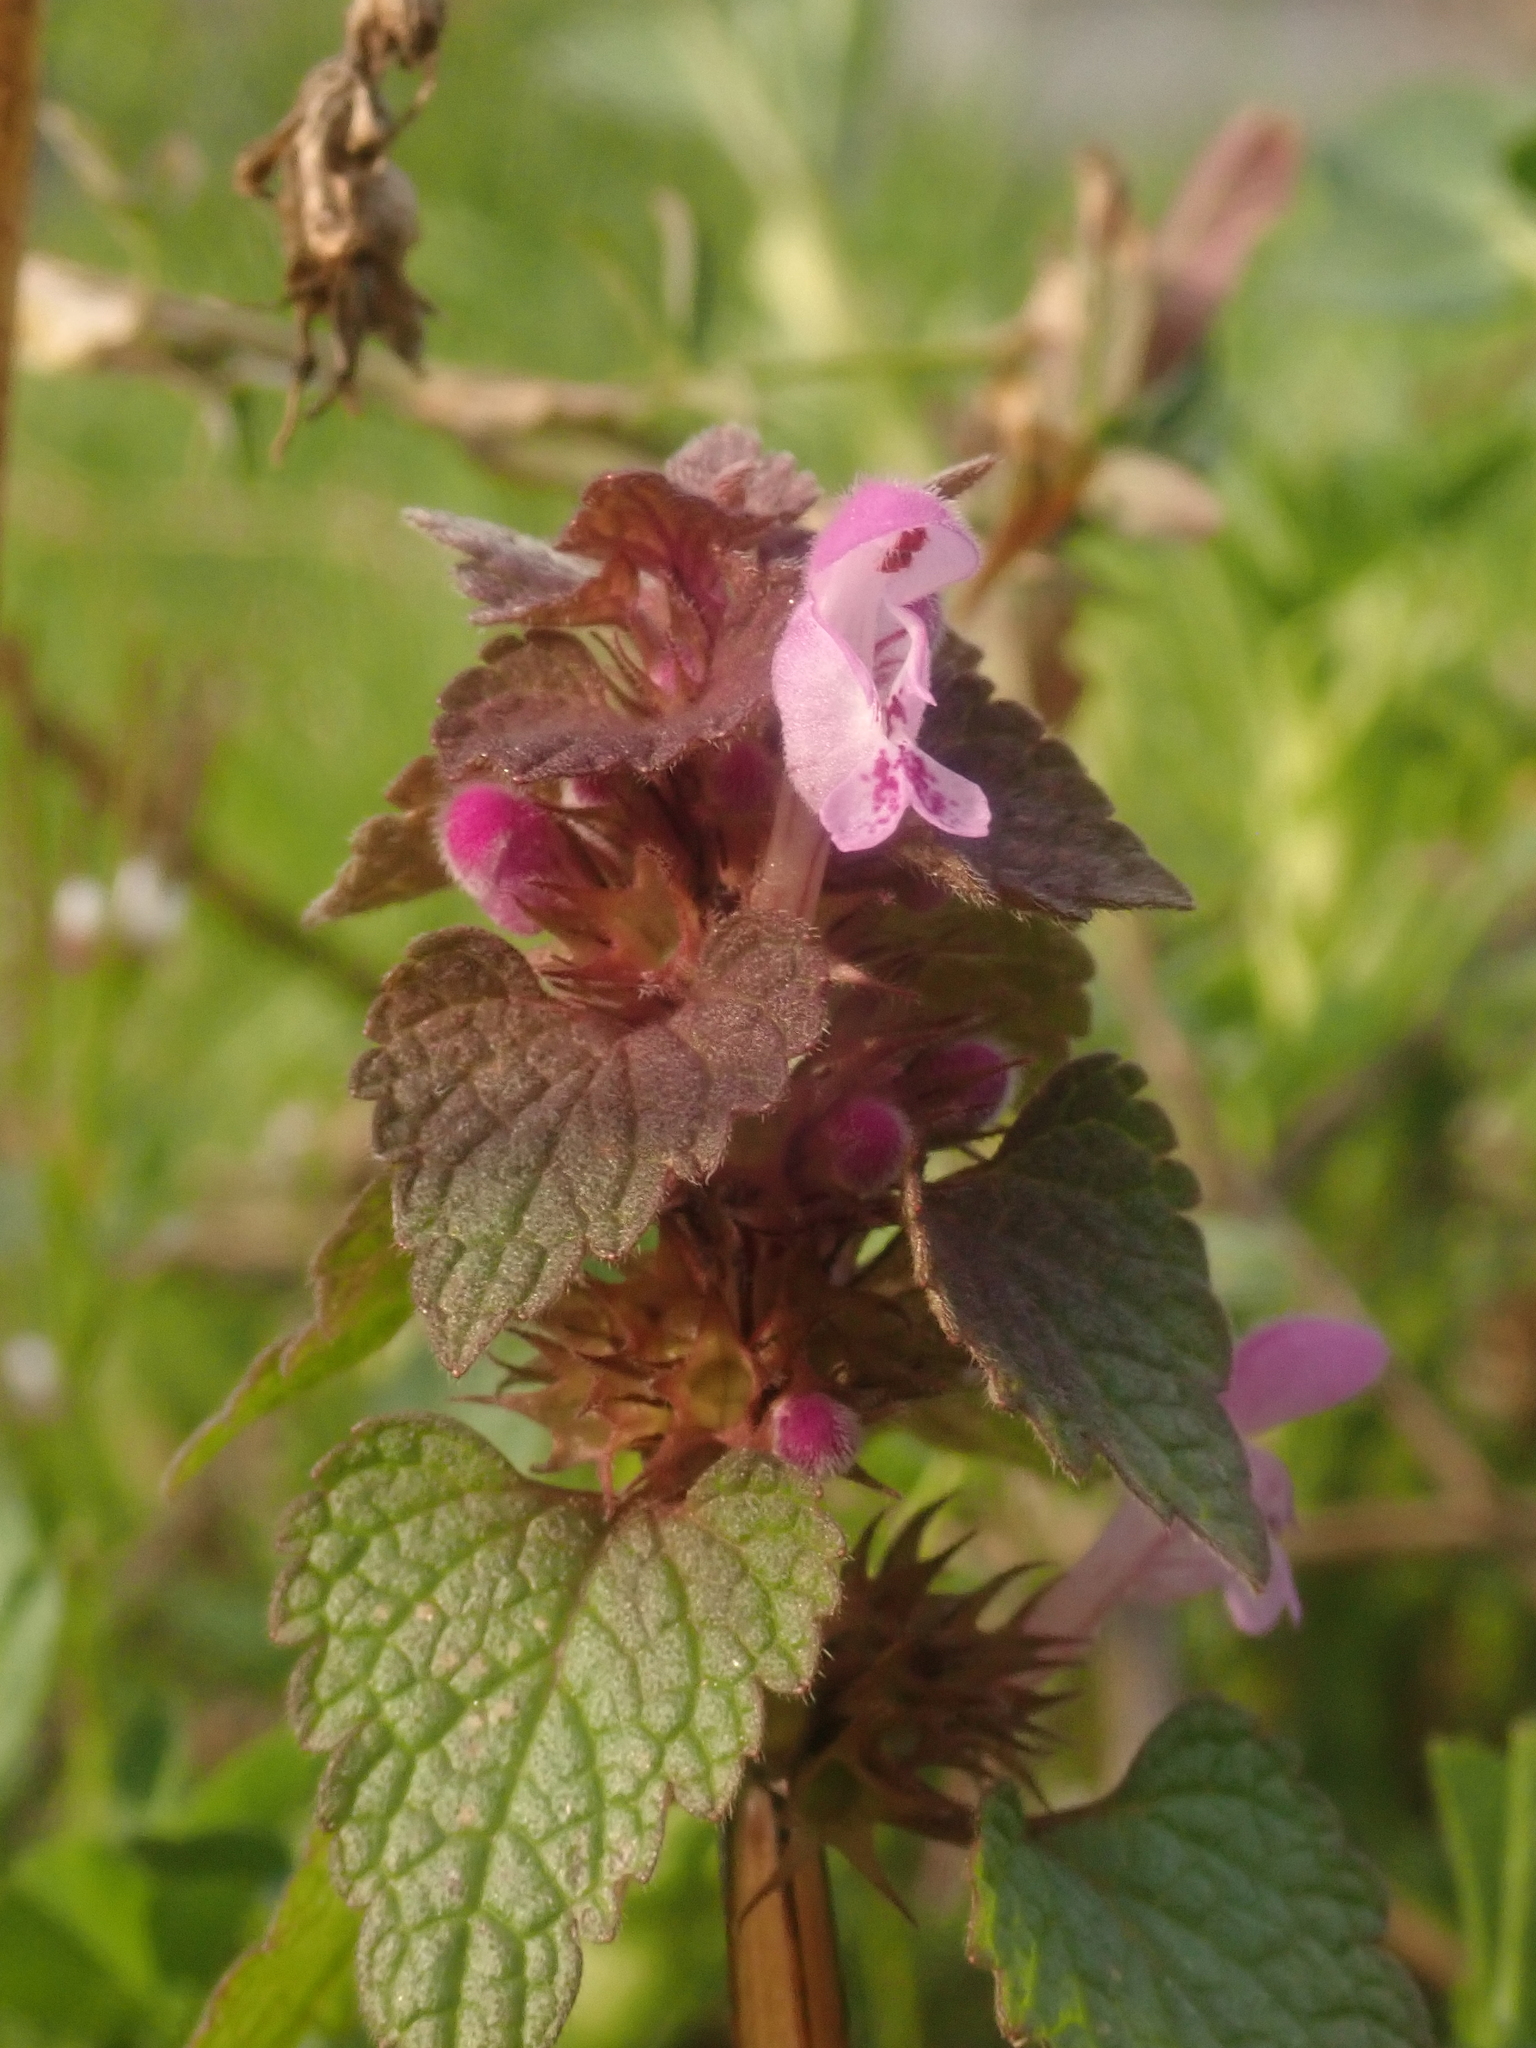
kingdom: Plantae
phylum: Tracheophyta
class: Magnoliopsida
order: Lamiales
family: Lamiaceae
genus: Lamium
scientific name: Lamium purpureum
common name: Red dead-nettle
